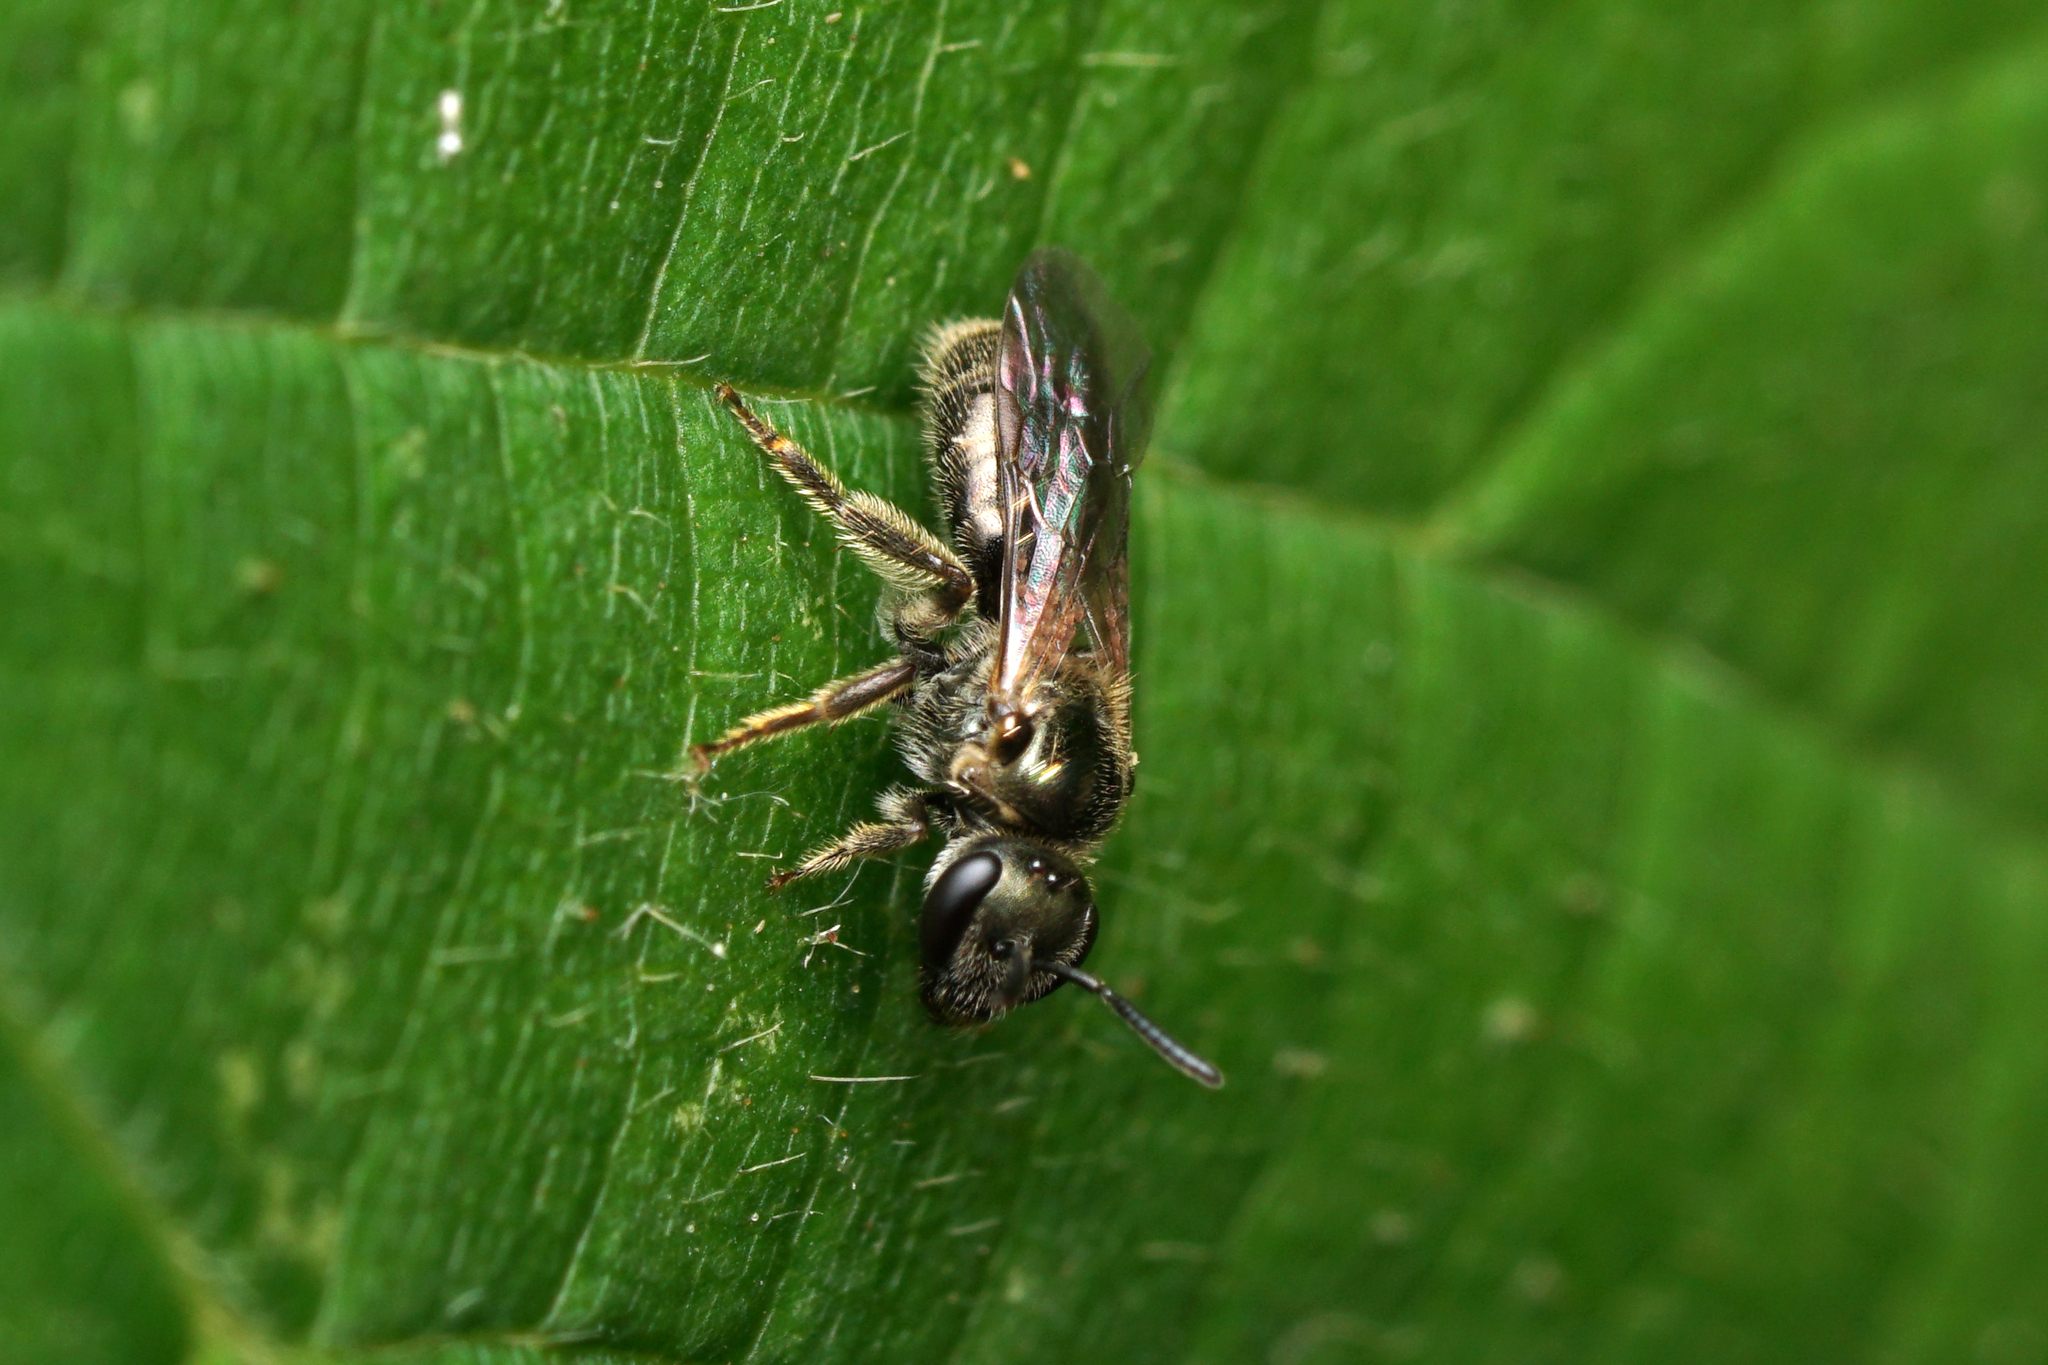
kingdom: Animalia
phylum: Arthropoda
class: Insecta
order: Hymenoptera
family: Halictidae
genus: Dialictus
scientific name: Dialictus
